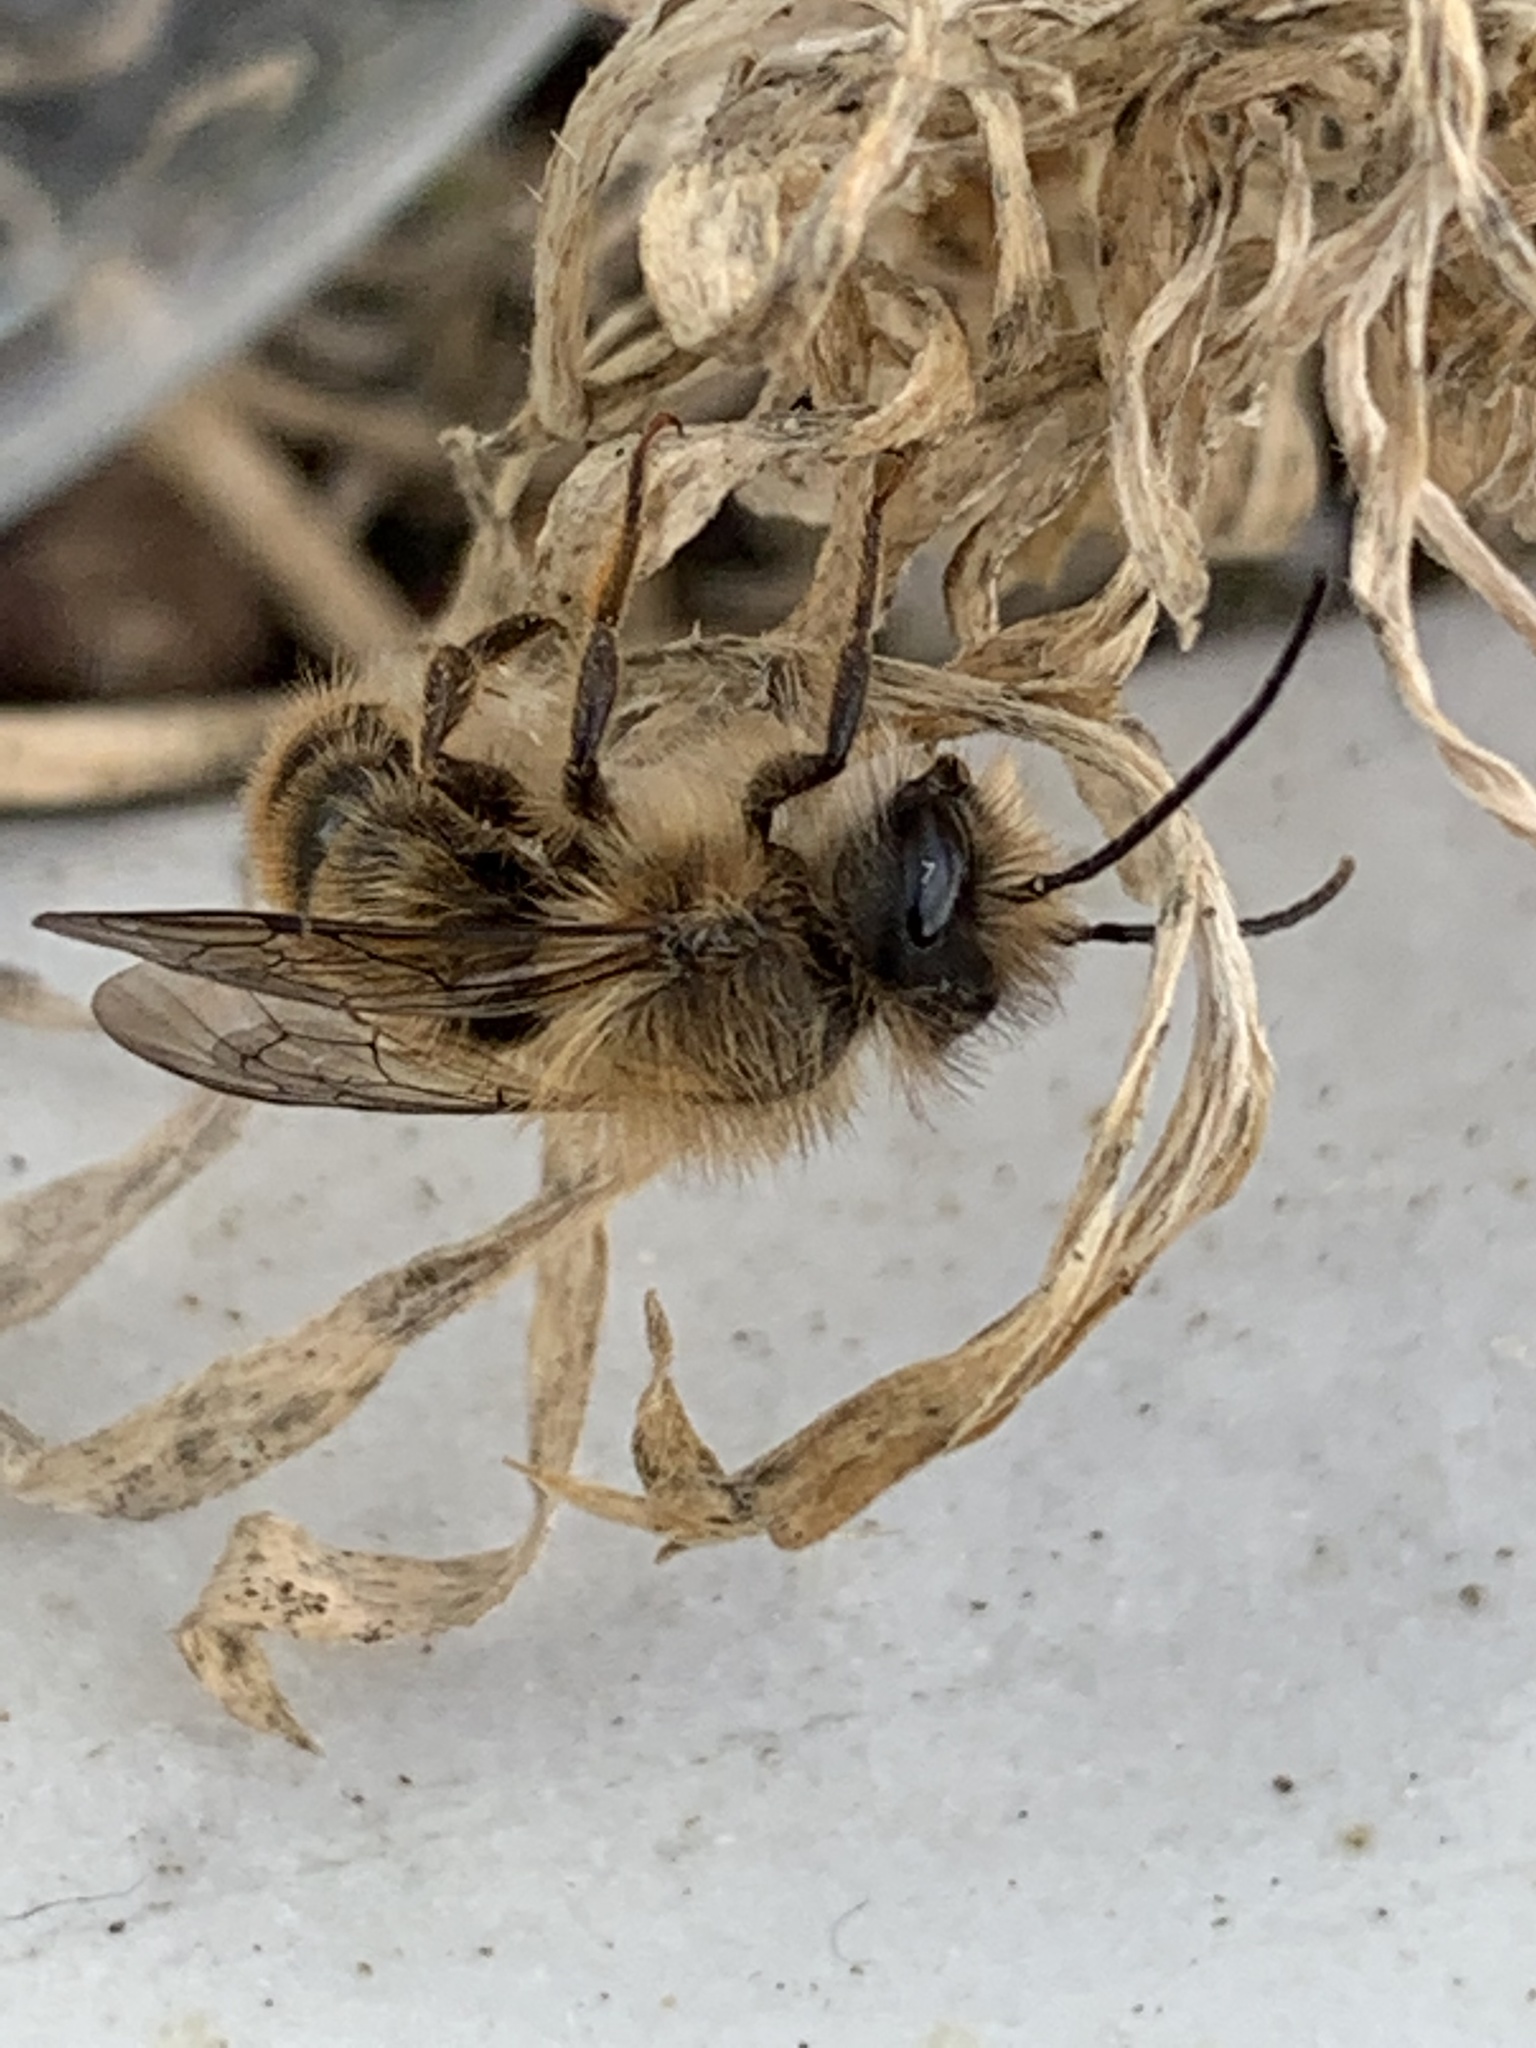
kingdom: Animalia
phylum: Arthropoda
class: Insecta
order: Hymenoptera
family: Megachilidae
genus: Osmia
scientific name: Osmia cornifrons
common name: Horn-faced bee
